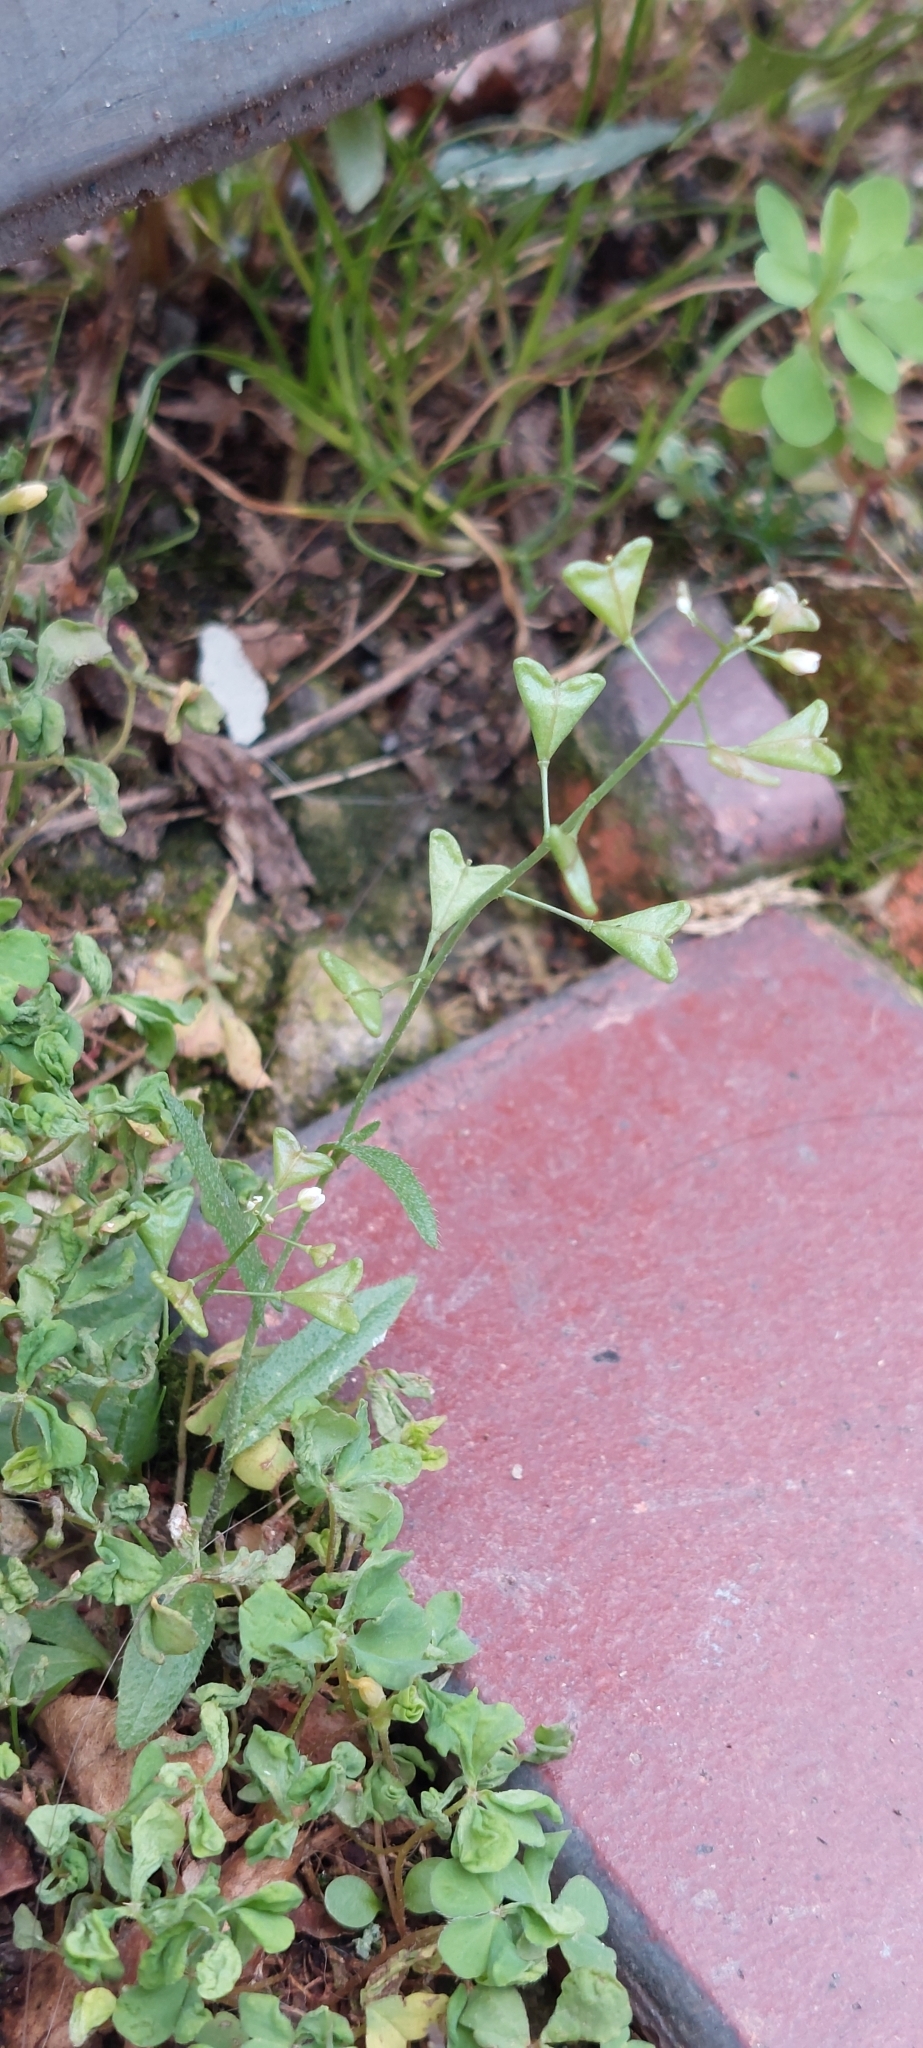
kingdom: Plantae
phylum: Tracheophyta
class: Magnoliopsida
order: Brassicales
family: Brassicaceae
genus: Capsella
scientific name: Capsella bursa-pastoris
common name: Shepherd's purse
